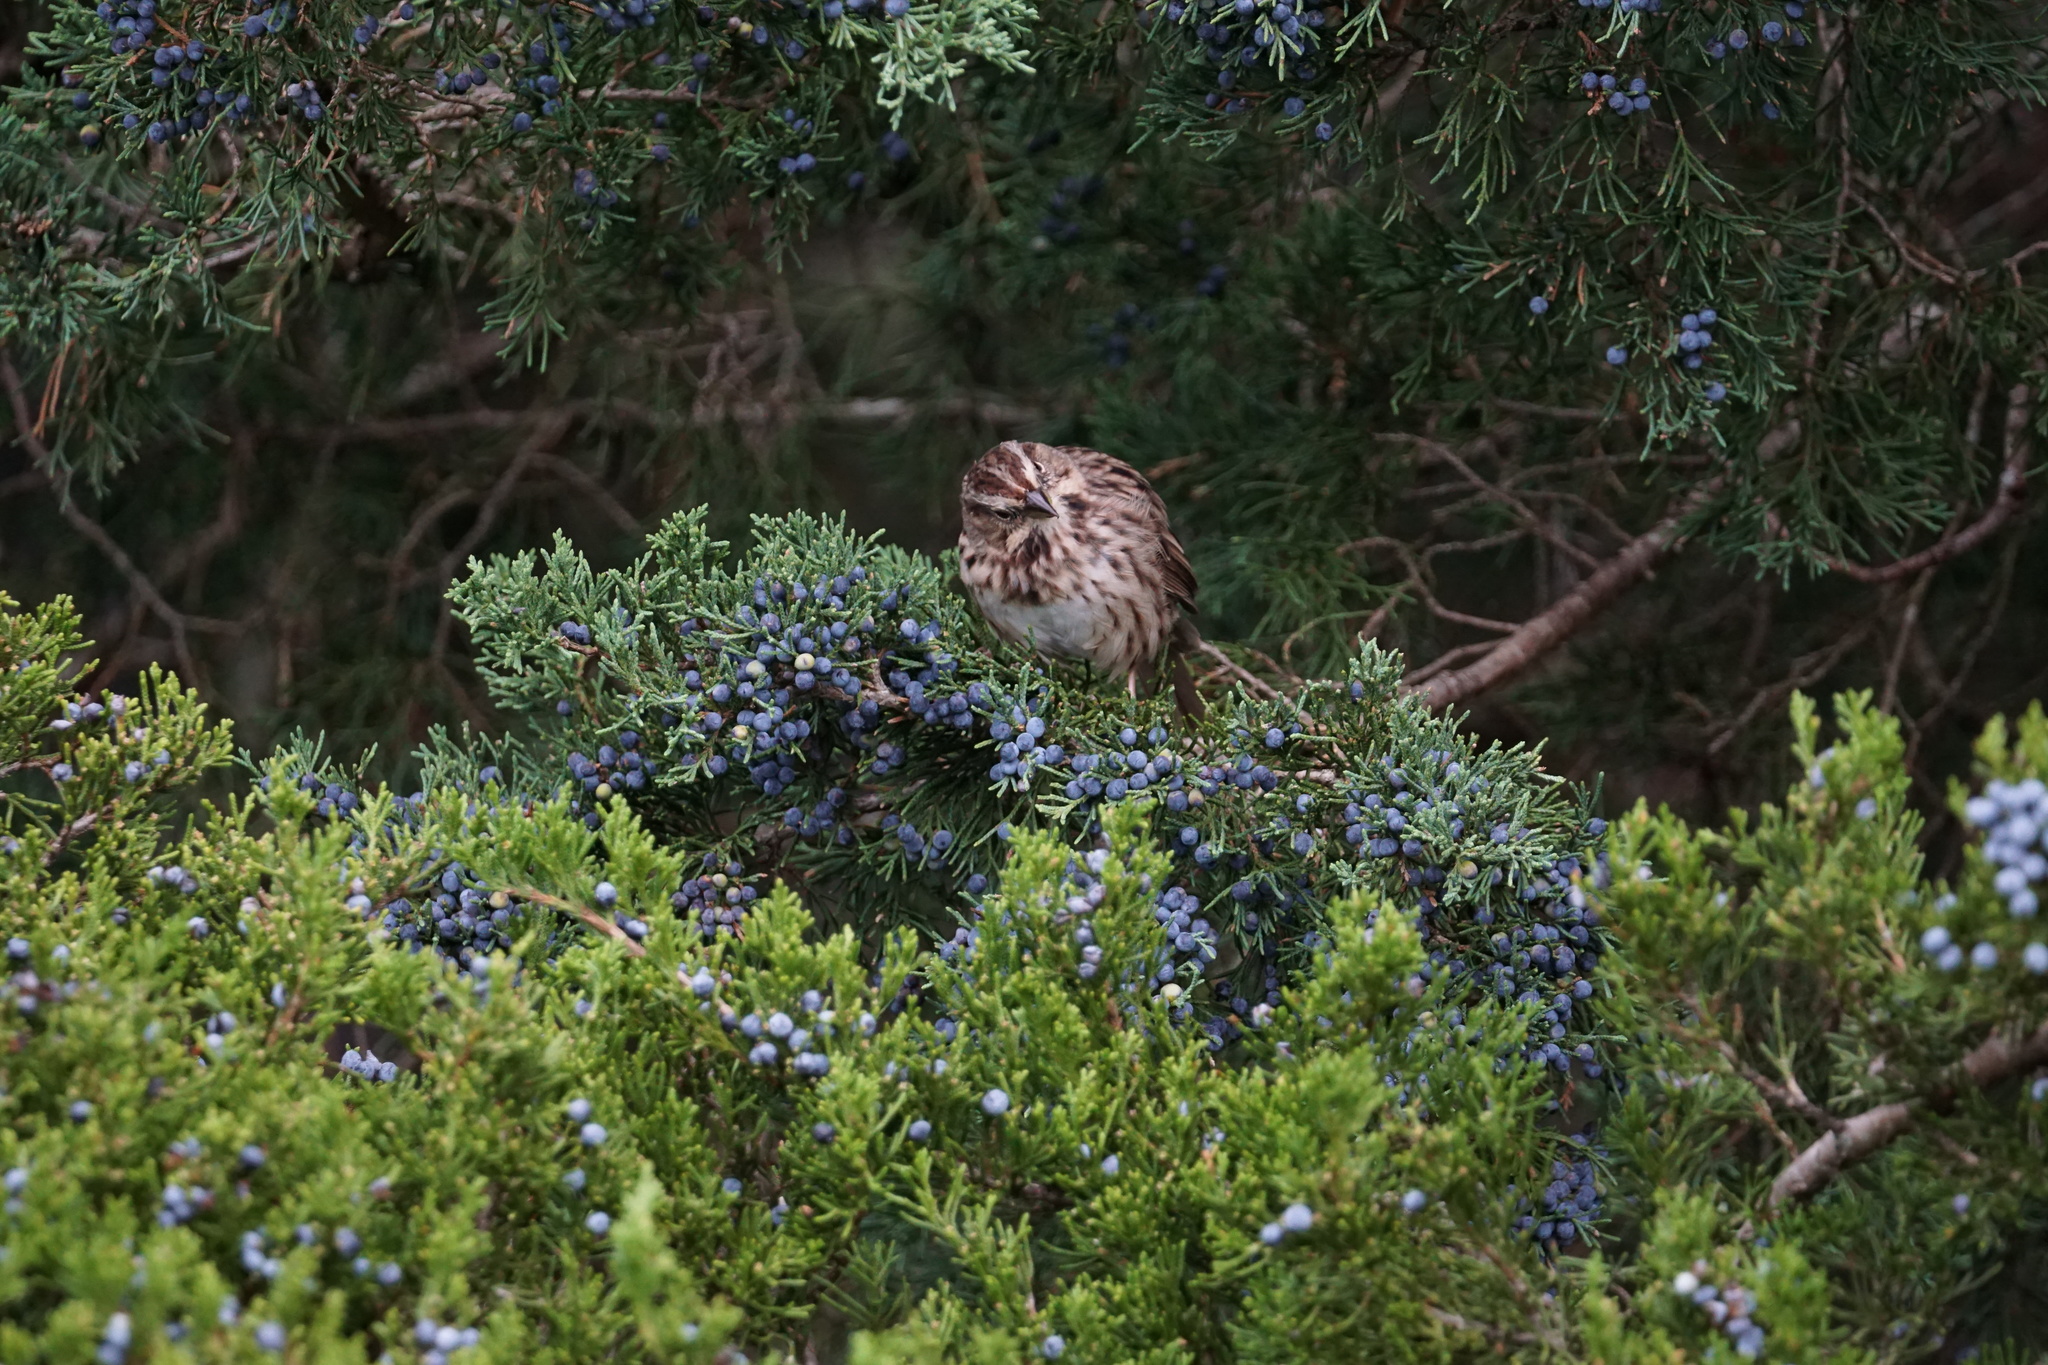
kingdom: Animalia
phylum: Chordata
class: Aves
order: Passeriformes
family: Passerellidae
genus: Melospiza
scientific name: Melospiza melodia
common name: Song sparrow
